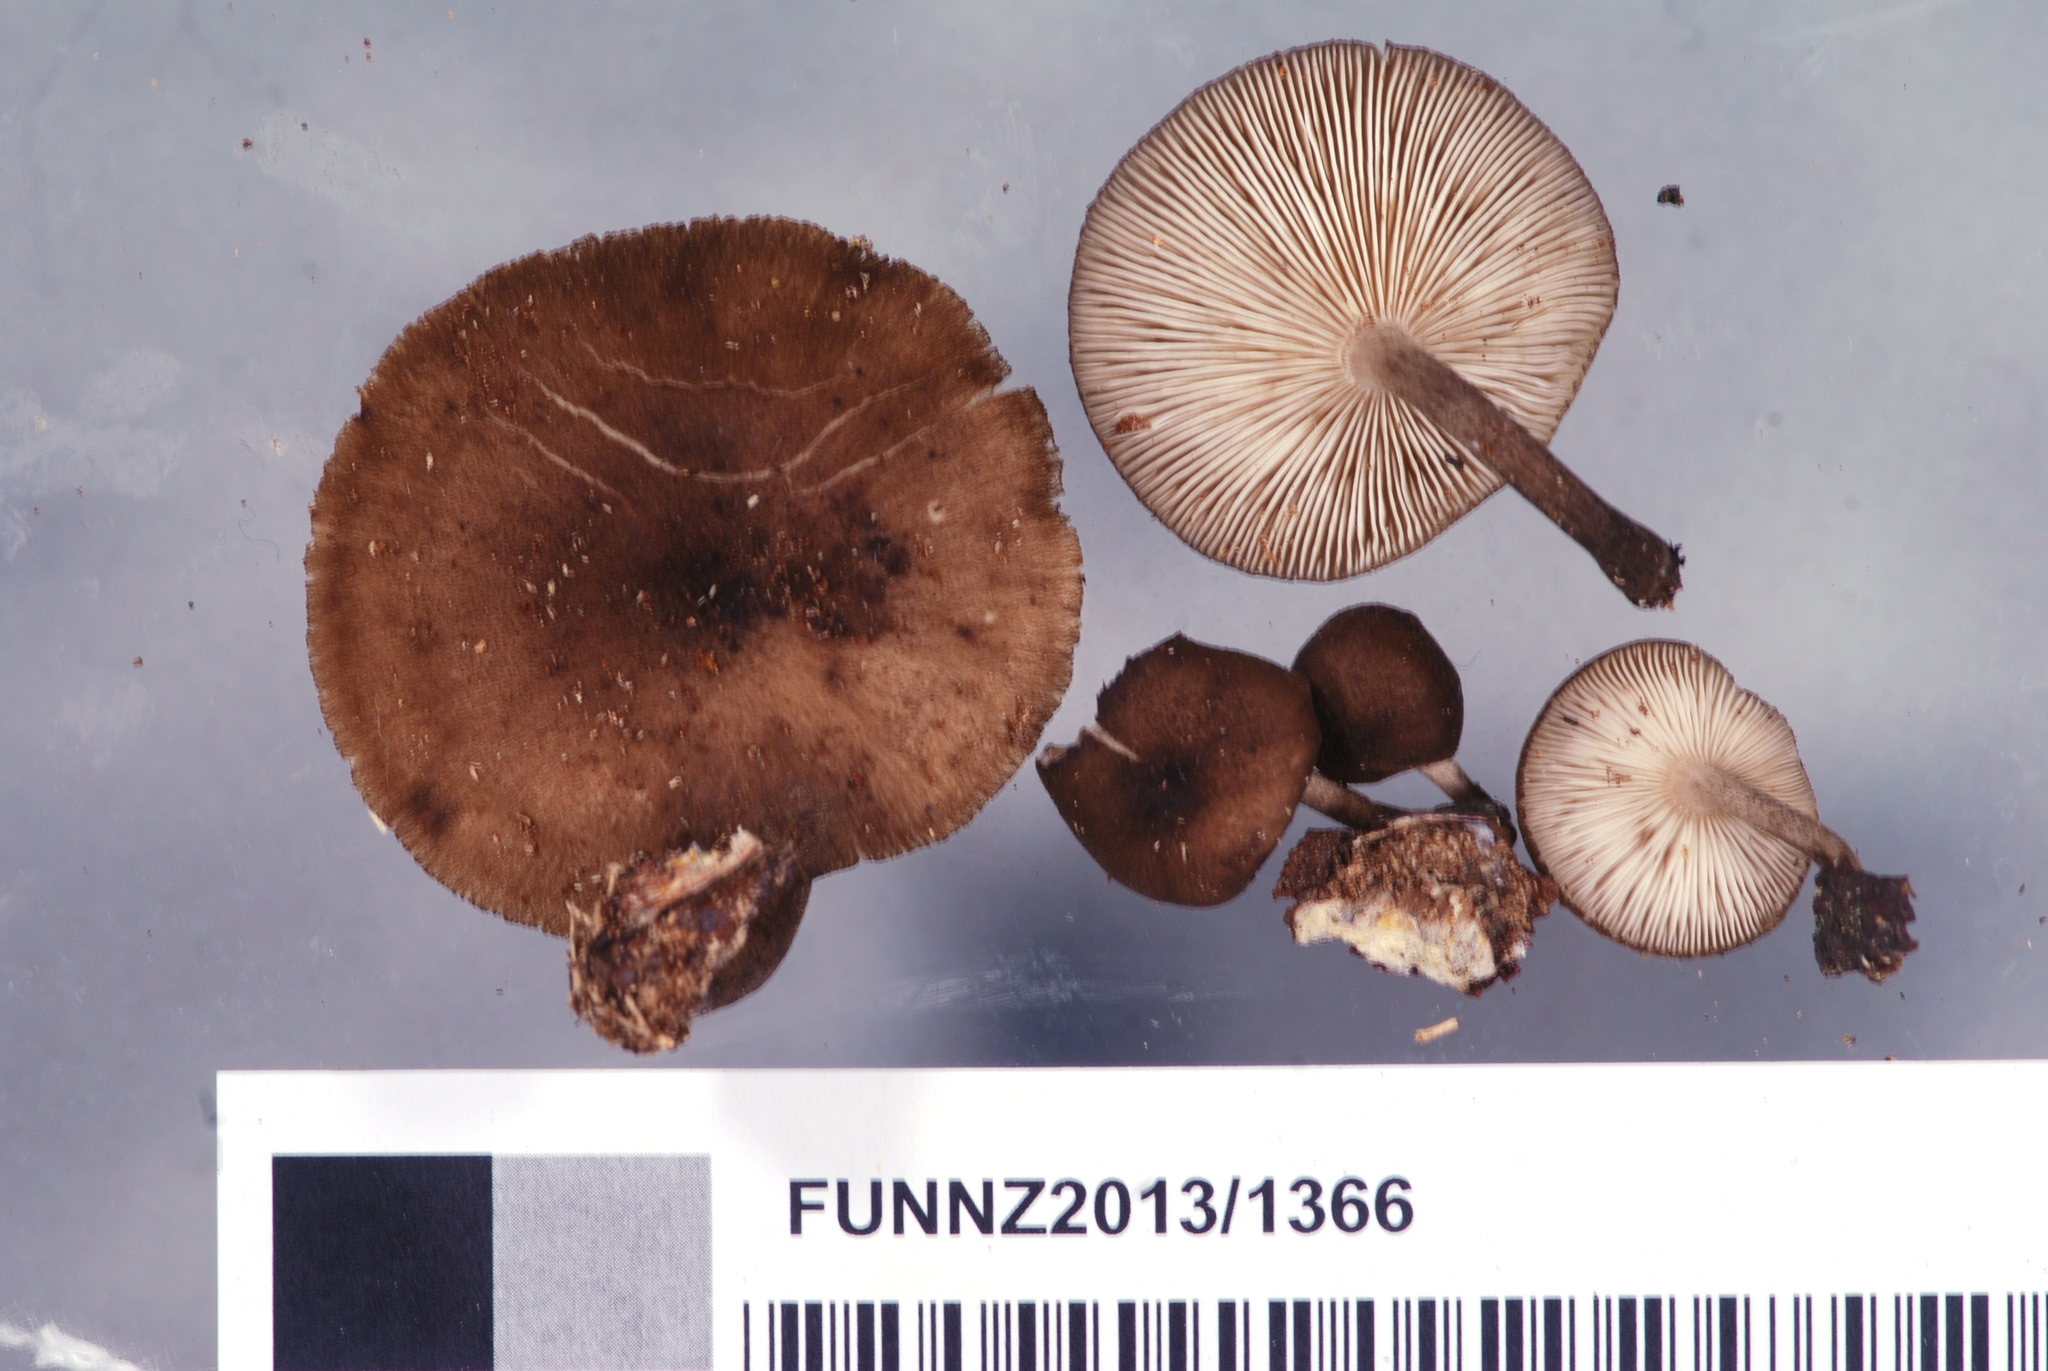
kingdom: Fungi
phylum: Basidiomycota
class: Agaricomycetes
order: Agaricales
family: Tricholomataceae
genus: Pleurella
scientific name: Pleurella ardesiaca
